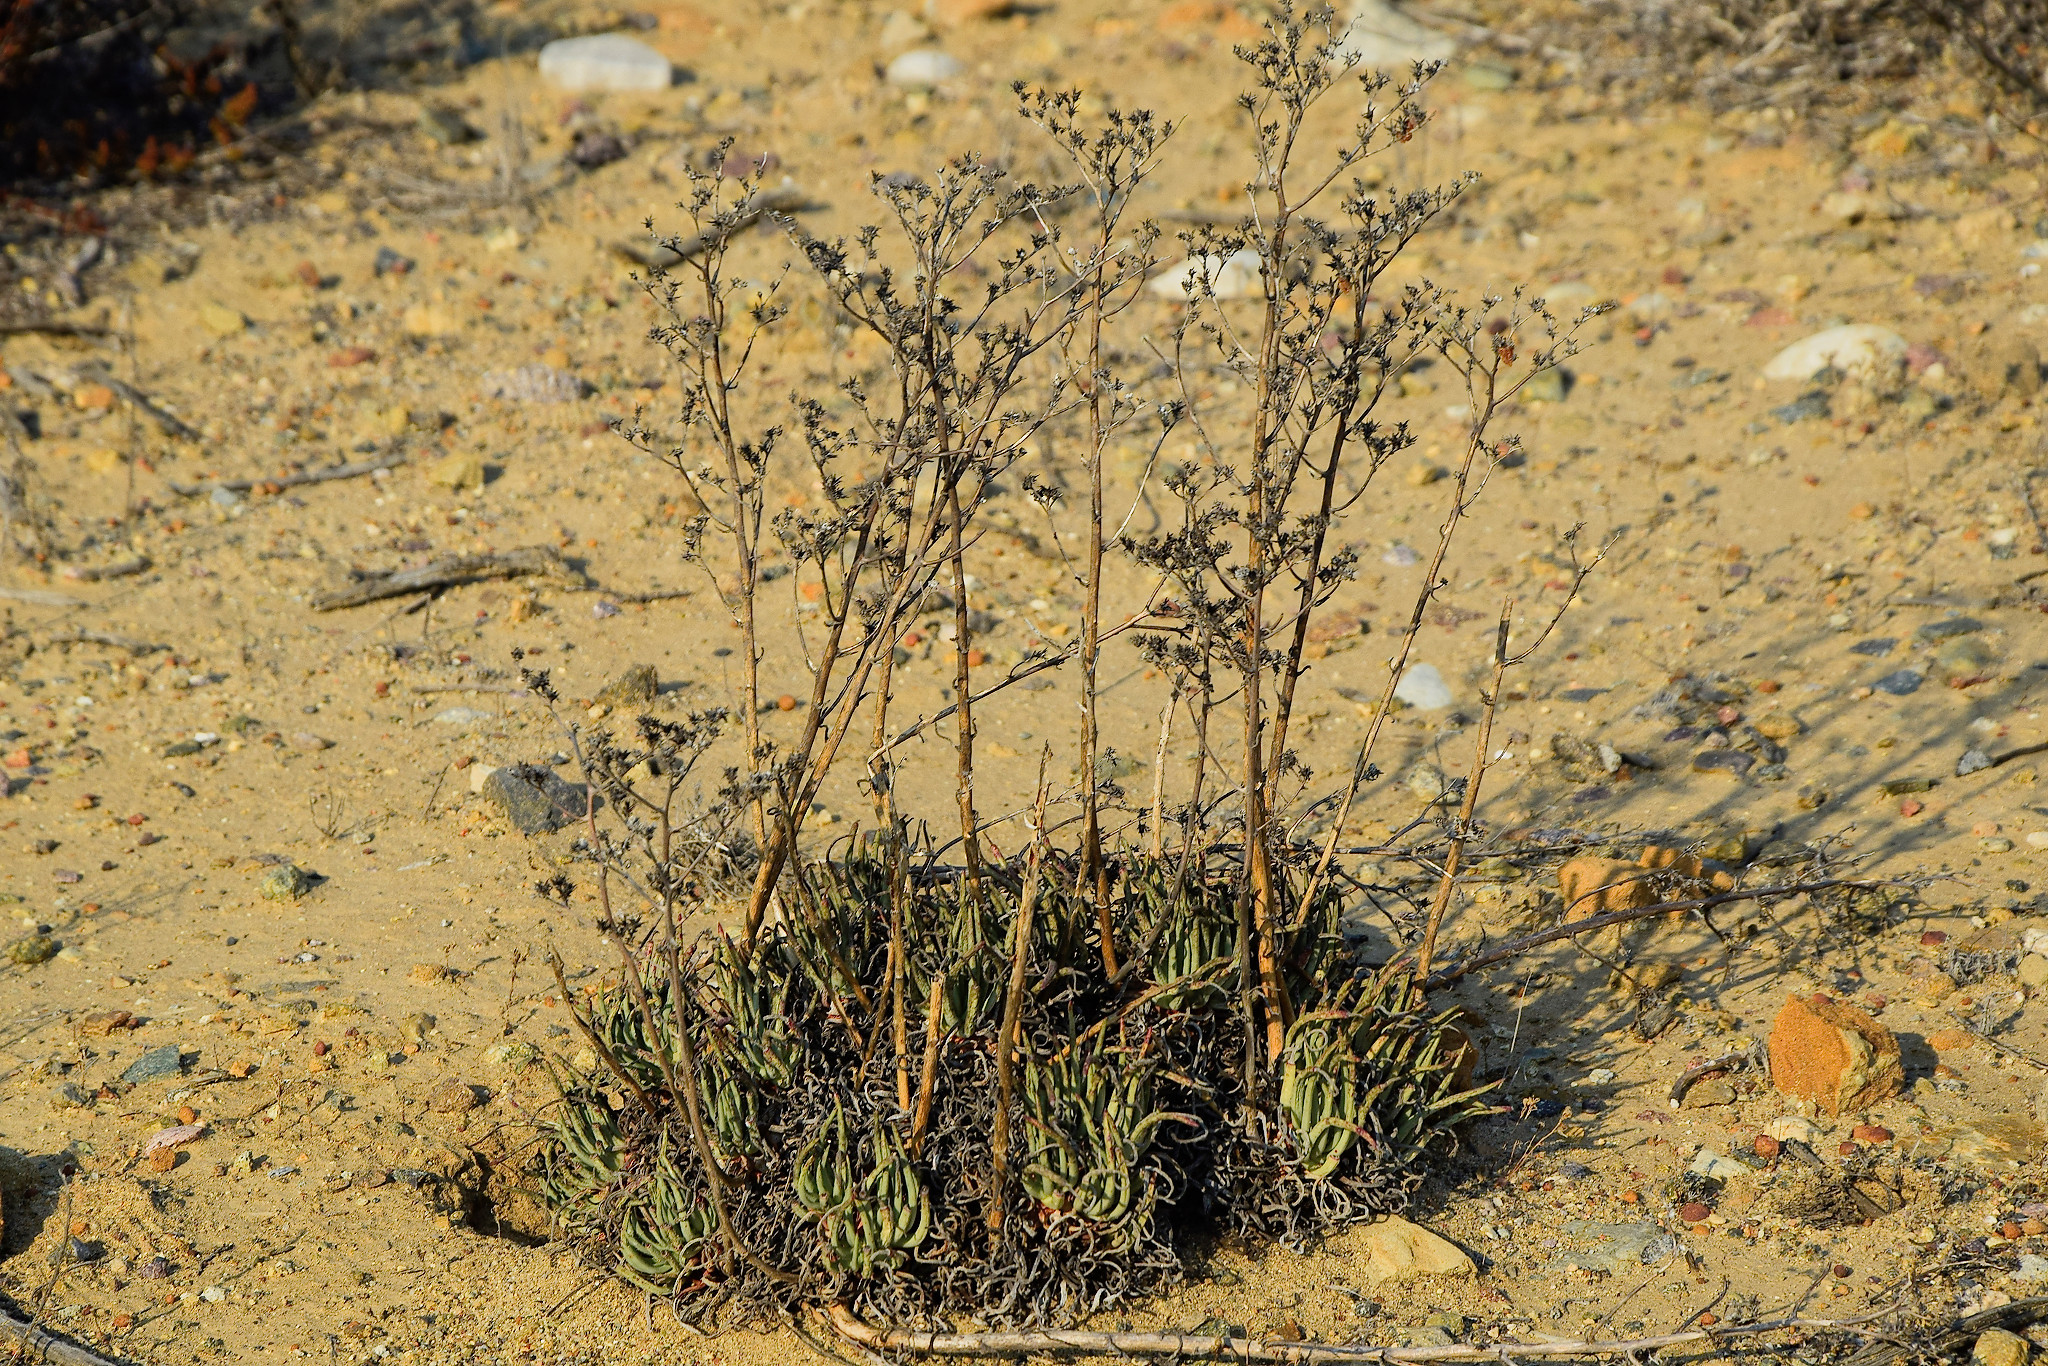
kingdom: Plantae
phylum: Tracheophyta
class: Magnoliopsida
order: Saxifragales
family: Crassulaceae
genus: Dudleya
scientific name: Dudleya edulis
